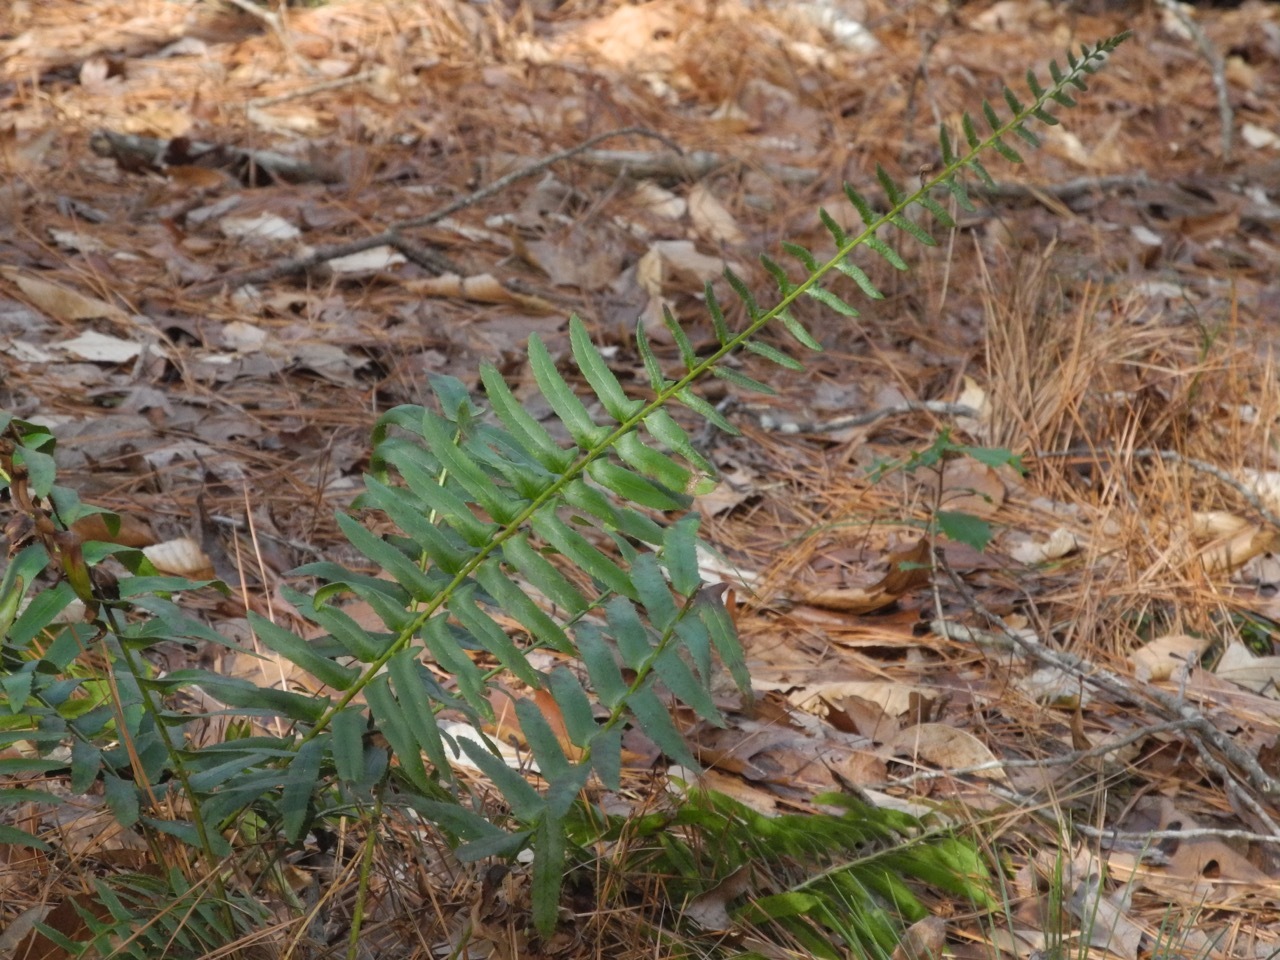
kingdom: Plantae
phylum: Tracheophyta
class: Polypodiopsida
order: Polypodiales
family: Dryopteridaceae
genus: Polystichum
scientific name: Polystichum acrostichoides
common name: Christmas fern
